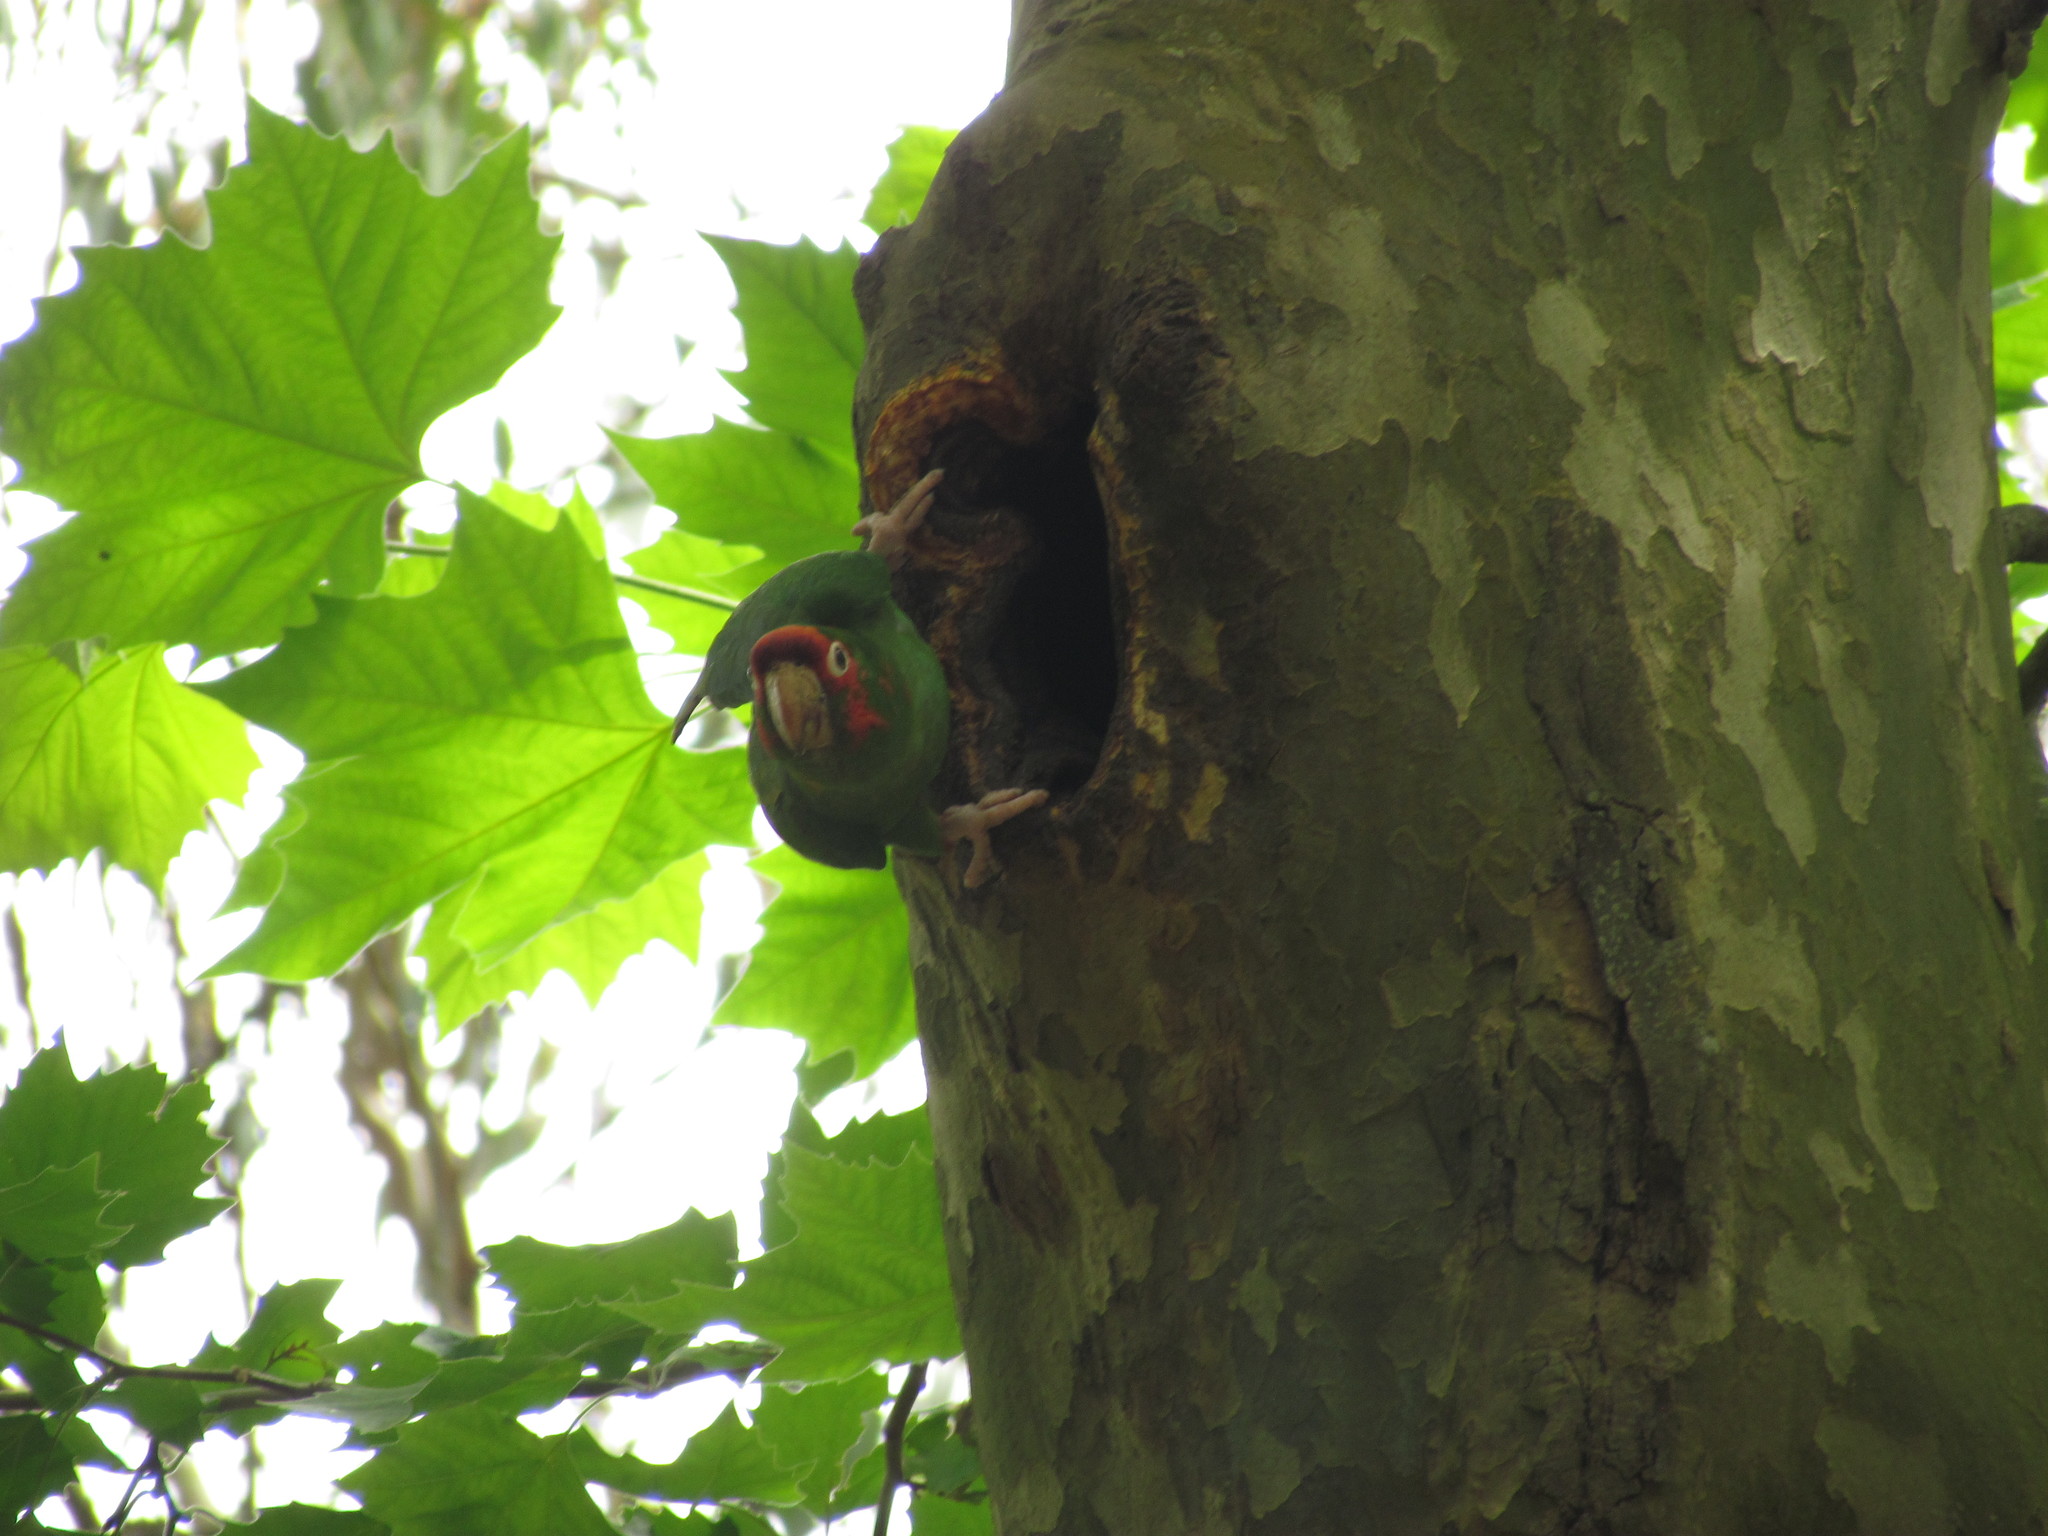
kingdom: Animalia
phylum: Chordata
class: Aves
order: Psittaciformes
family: Psittacidae
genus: Aratinga
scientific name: Aratinga mitrata
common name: Mitred parakeet
